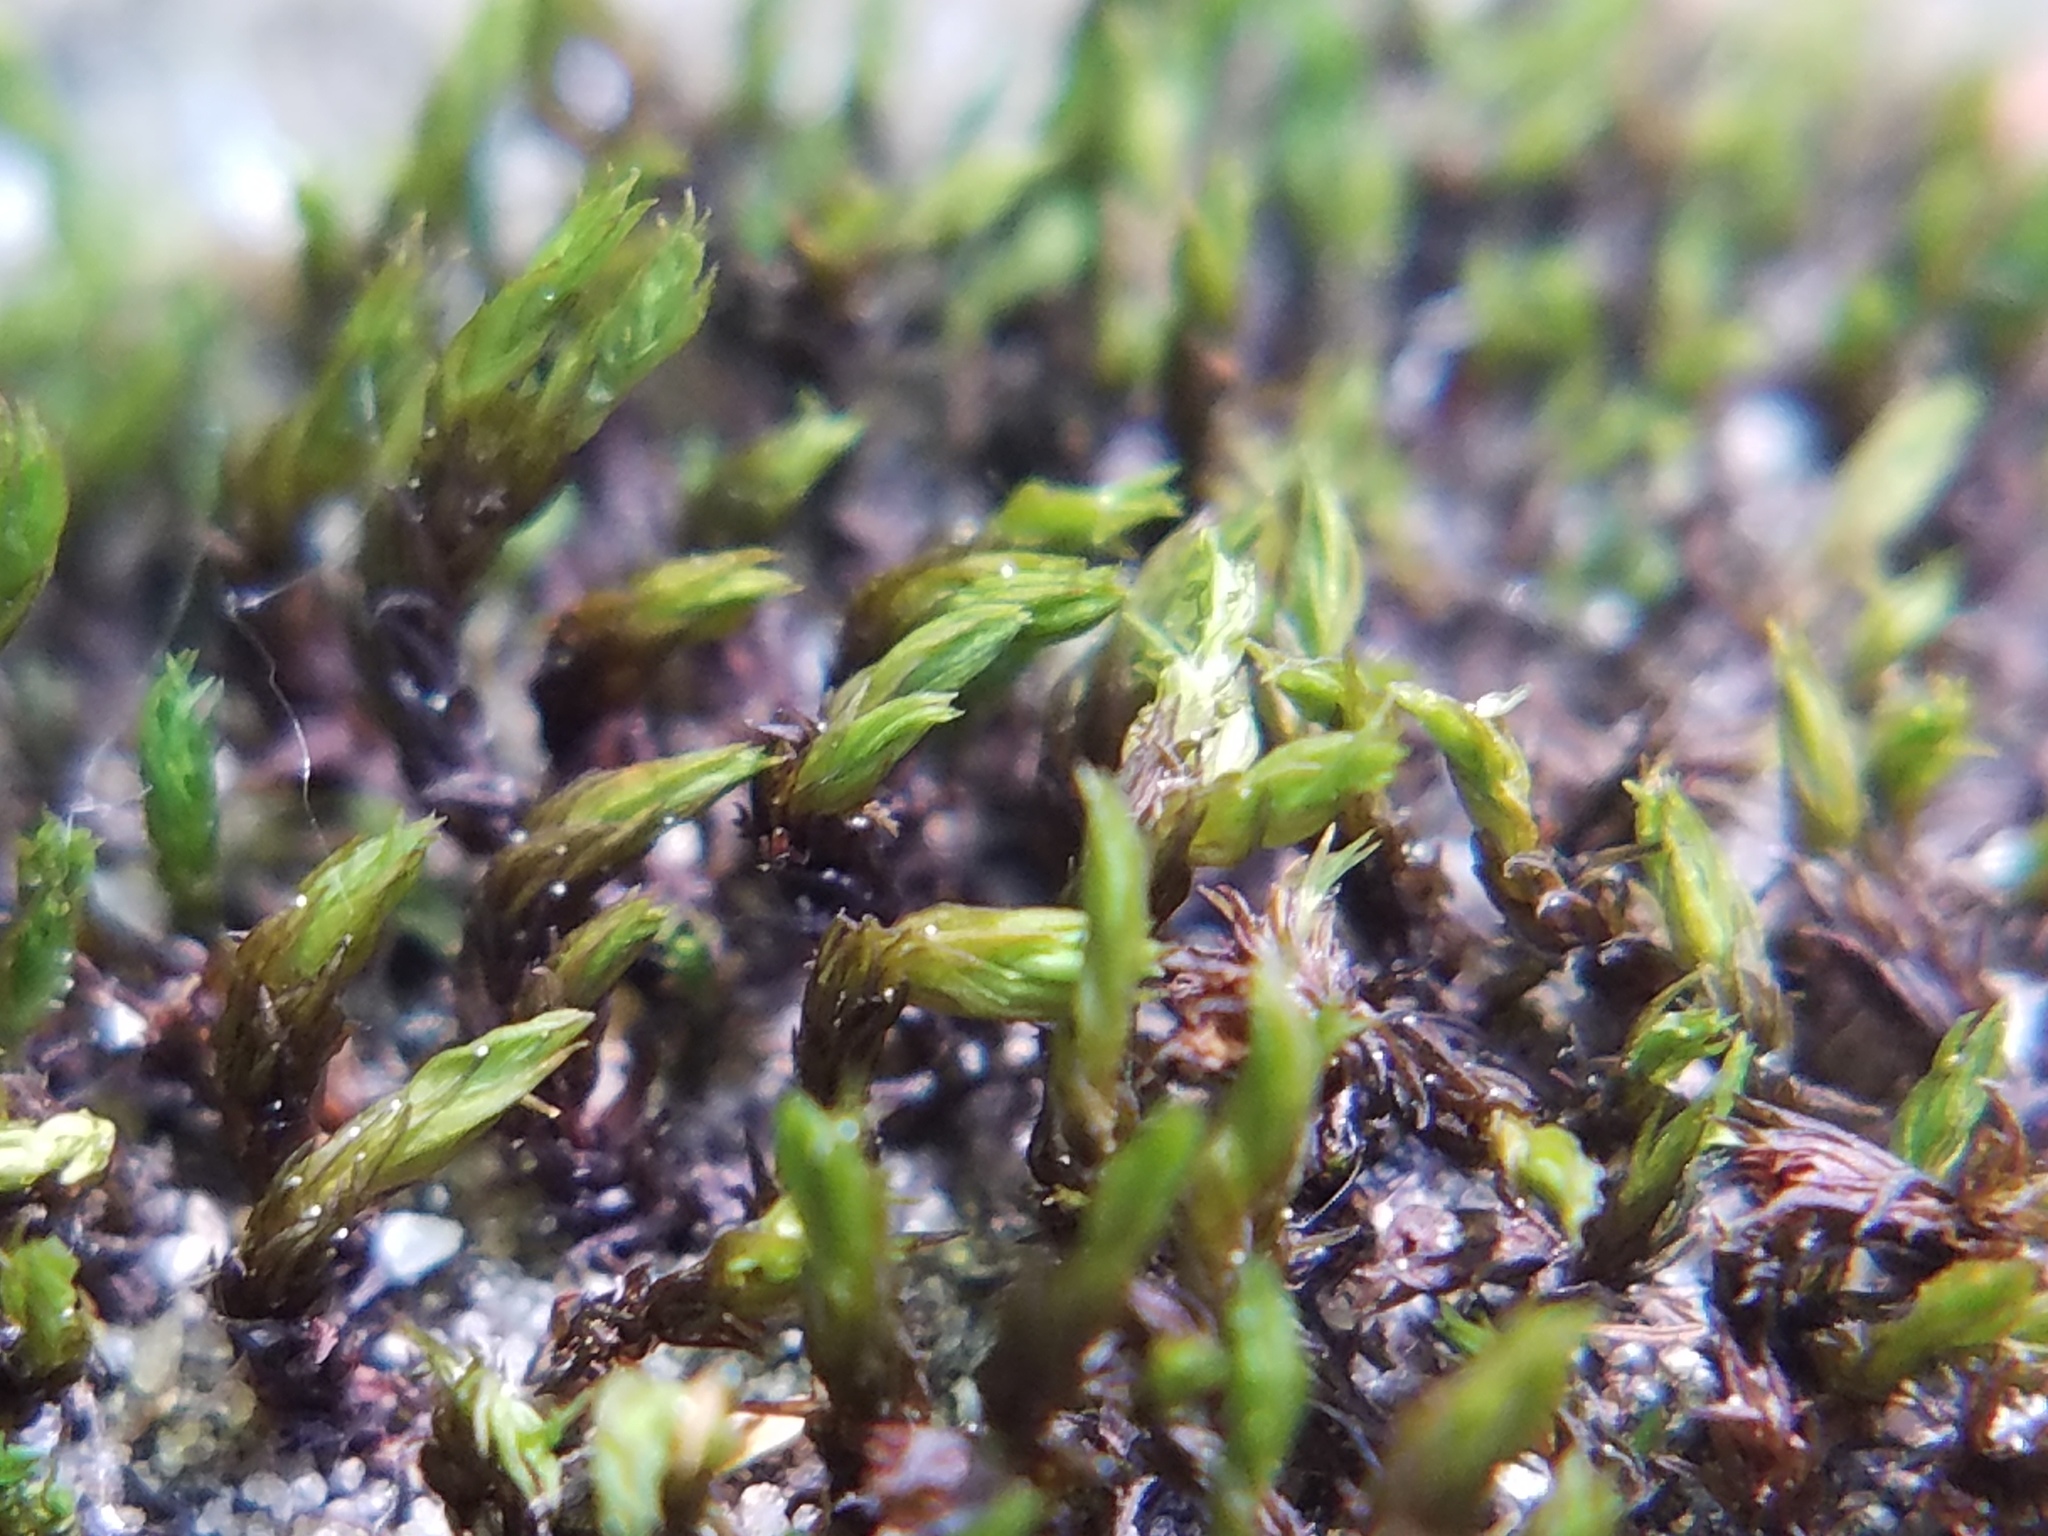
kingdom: Plantae
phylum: Bryophyta
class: Bryopsida
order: Grimmiales
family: Grimmiaceae
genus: Schistidium
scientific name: Schistidium apocarpum
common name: Radiate bloom moss
